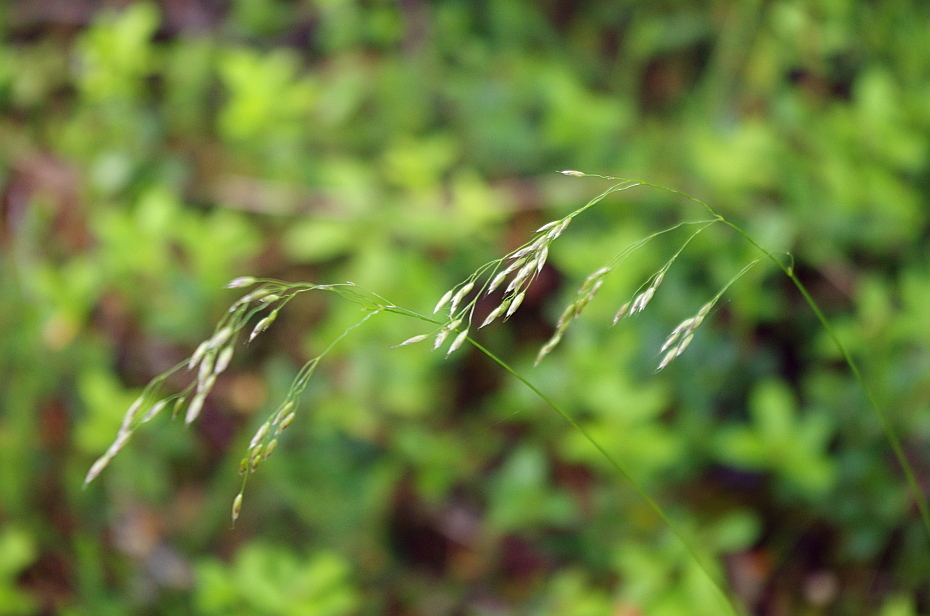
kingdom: Plantae
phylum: Tracheophyta
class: Liliopsida
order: Poales
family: Poaceae
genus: Avenella
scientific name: Avenella flexuosa
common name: Wavy hairgrass
